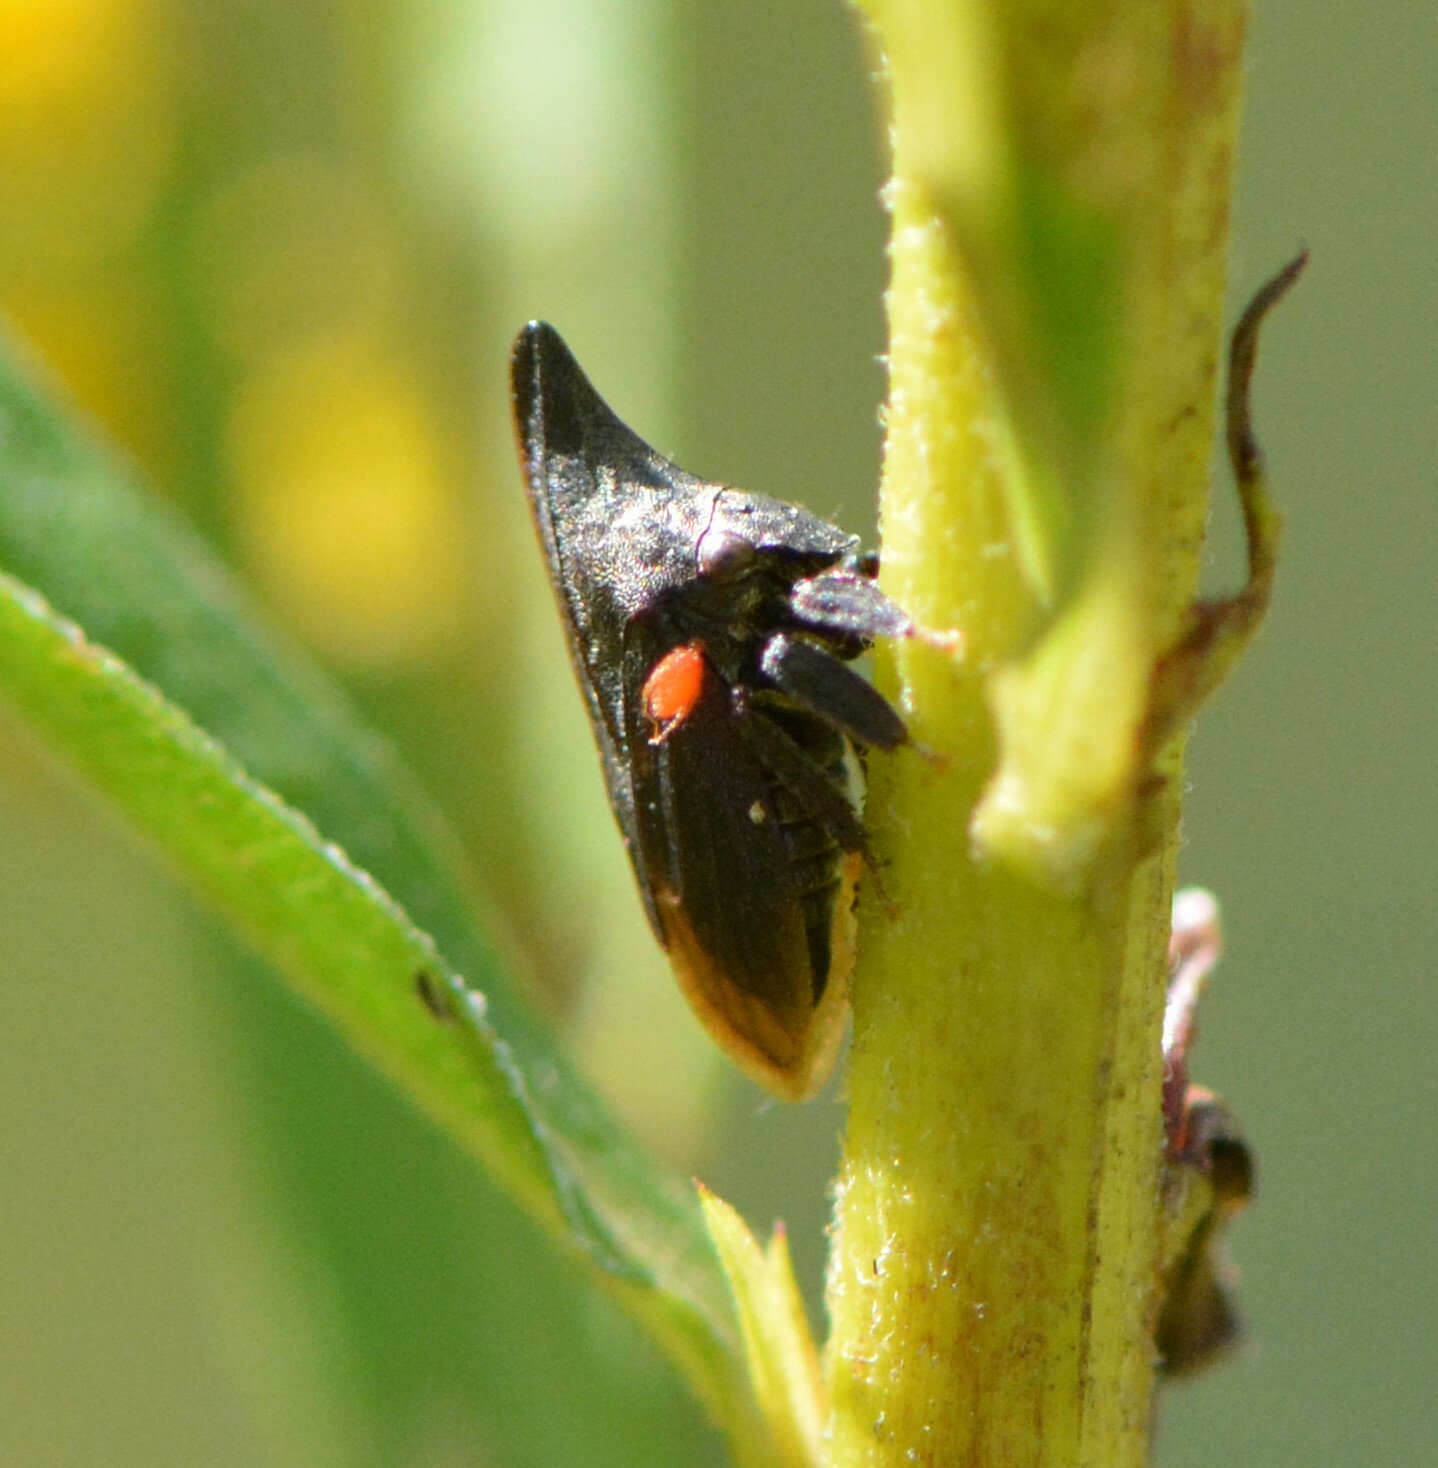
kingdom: Animalia
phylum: Arthropoda
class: Insecta
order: Hemiptera
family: Membracidae
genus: Enchenopa
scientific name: Enchenopa latipes
